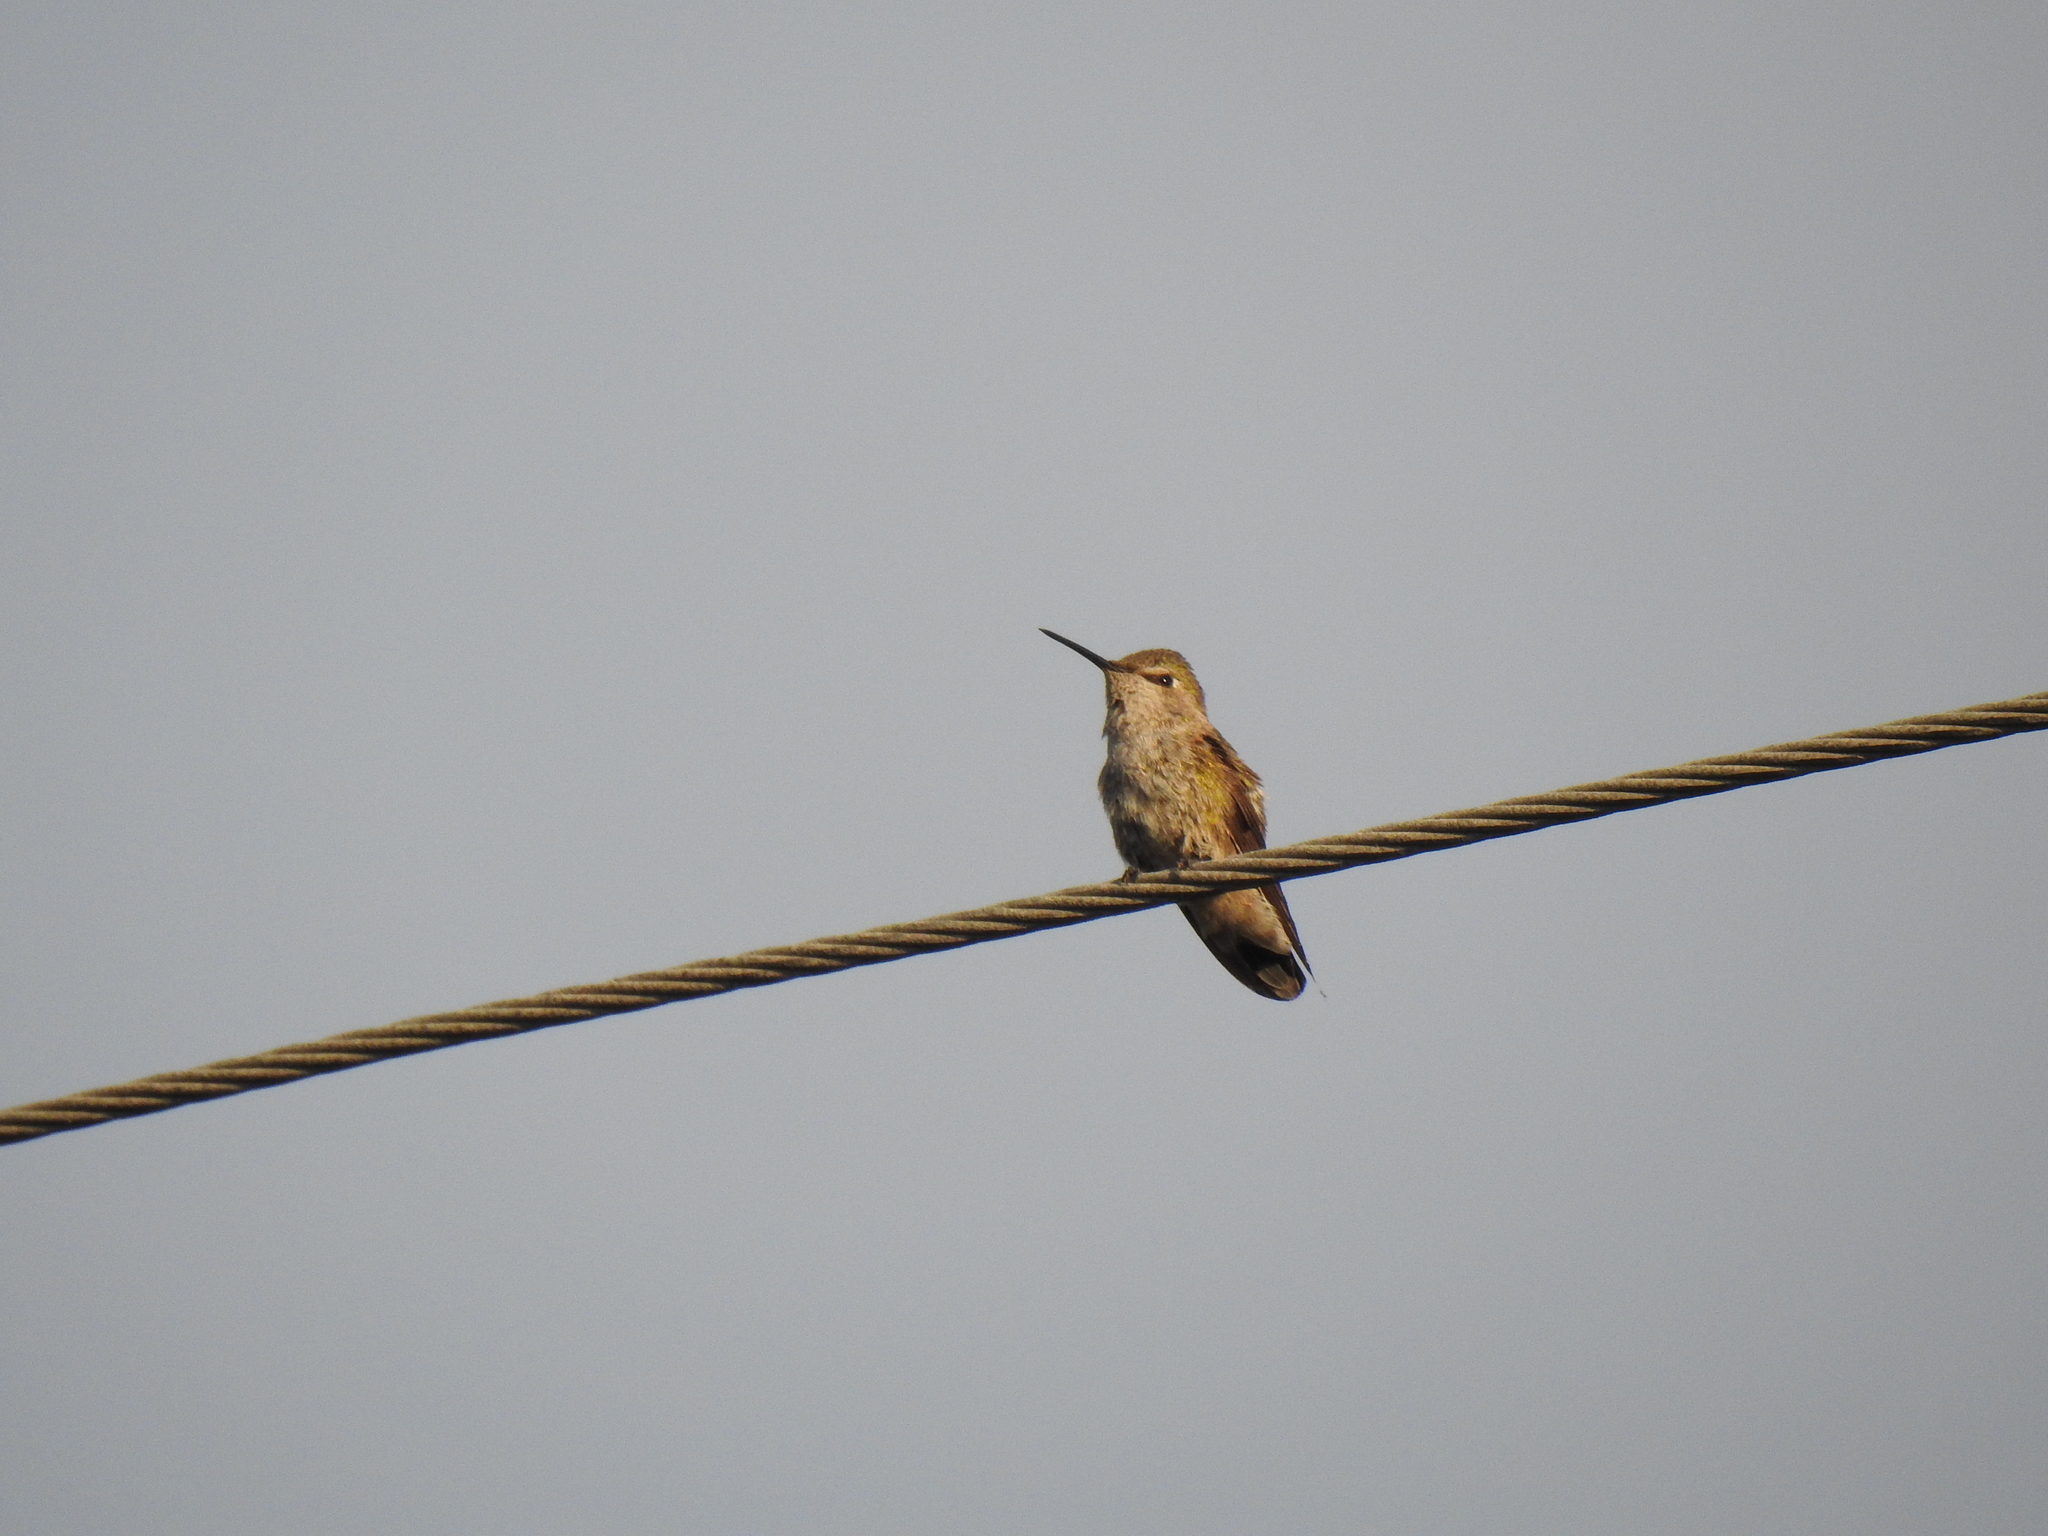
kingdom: Animalia
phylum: Chordata
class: Aves
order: Apodiformes
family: Trochilidae
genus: Calypte
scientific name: Calypte anna
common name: Anna's hummingbird
